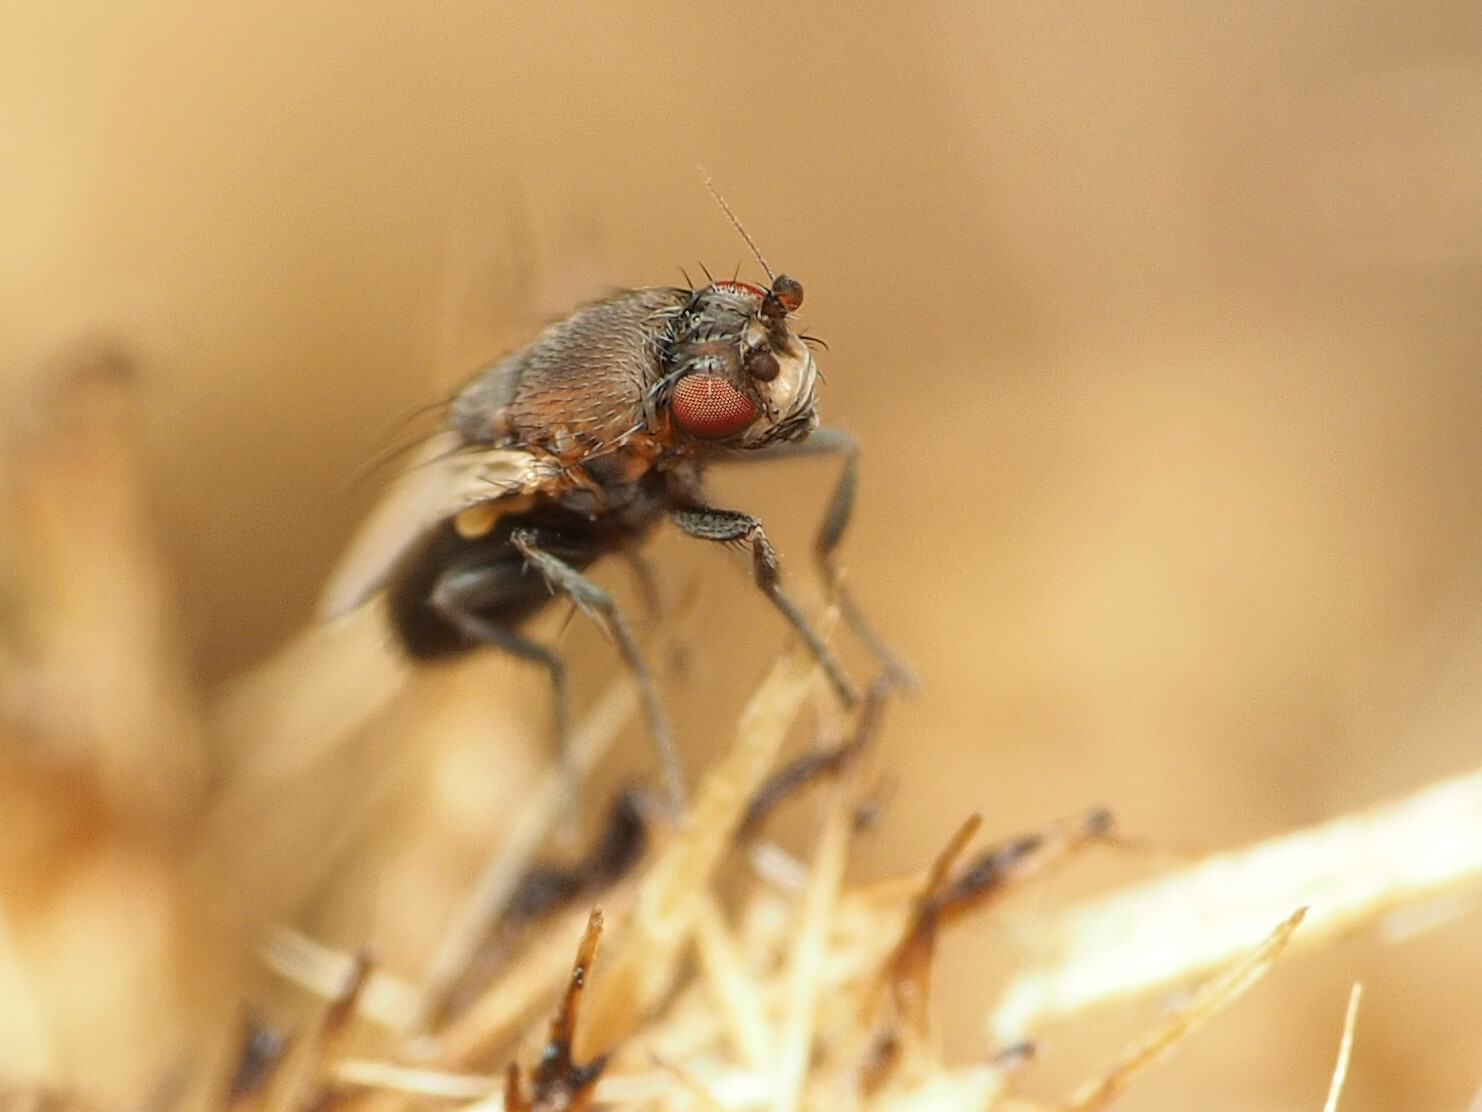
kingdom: Animalia
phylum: Arthropoda
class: Insecta
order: Diptera
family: Sphaeroceridae
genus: Coproica
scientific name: Coproica ferruginata
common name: Fly
